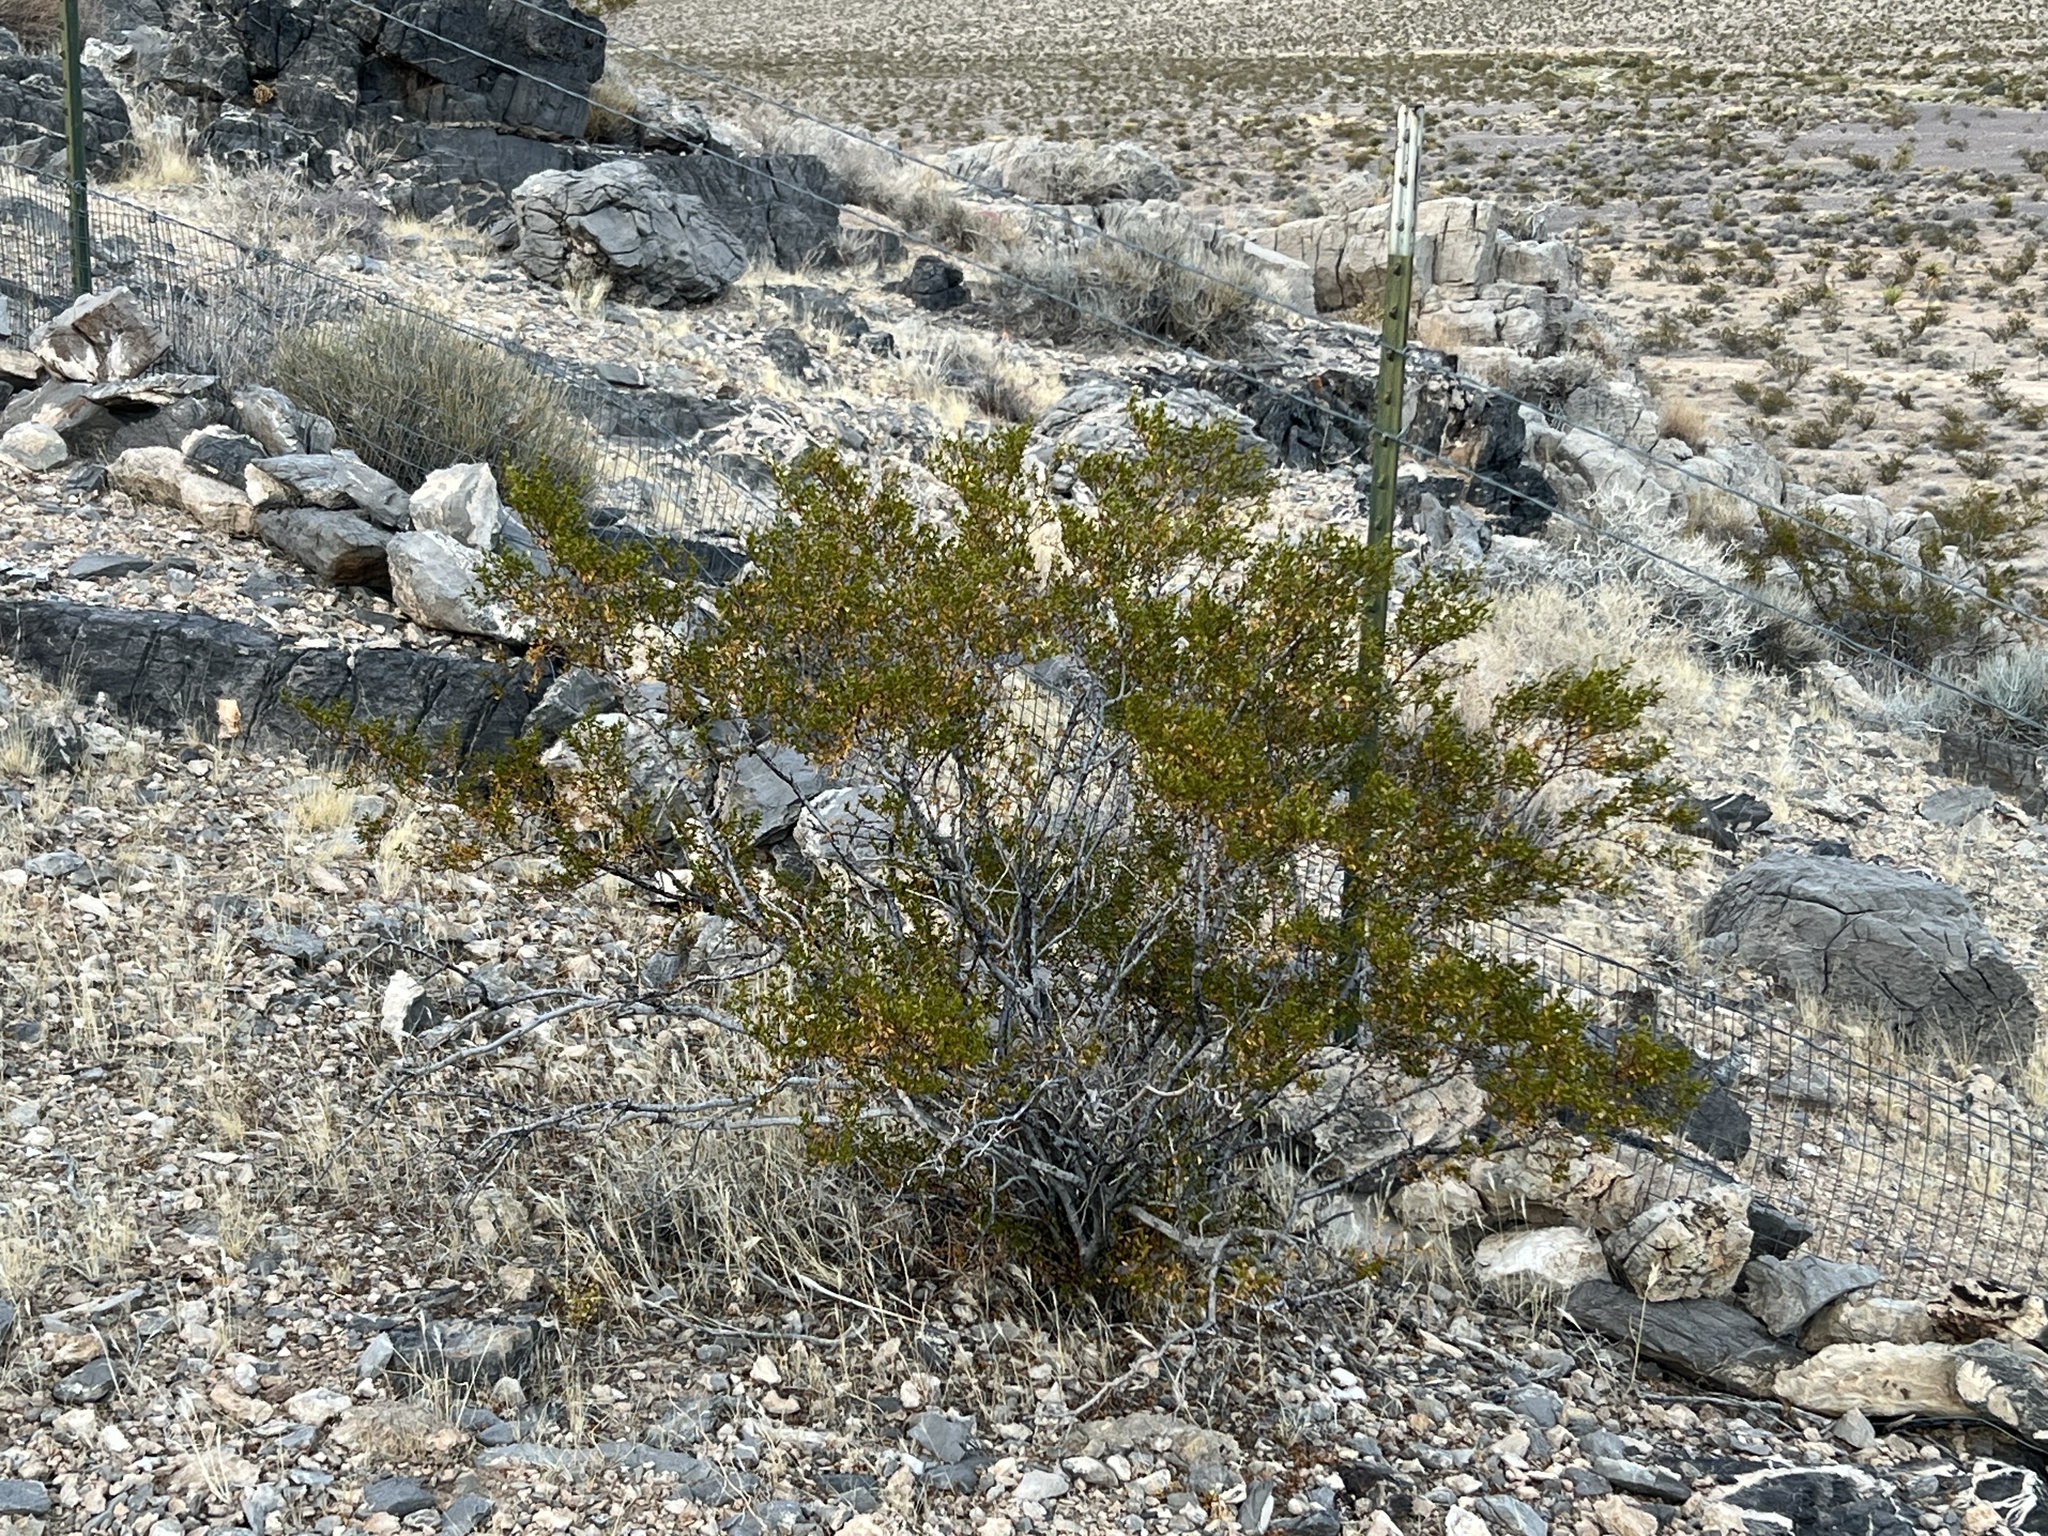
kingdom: Plantae
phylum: Tracheophyta
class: Magnoliopsida
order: Zygophyllales
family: Zygophyllaceae
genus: Larrea
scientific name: Larrea tridentata
